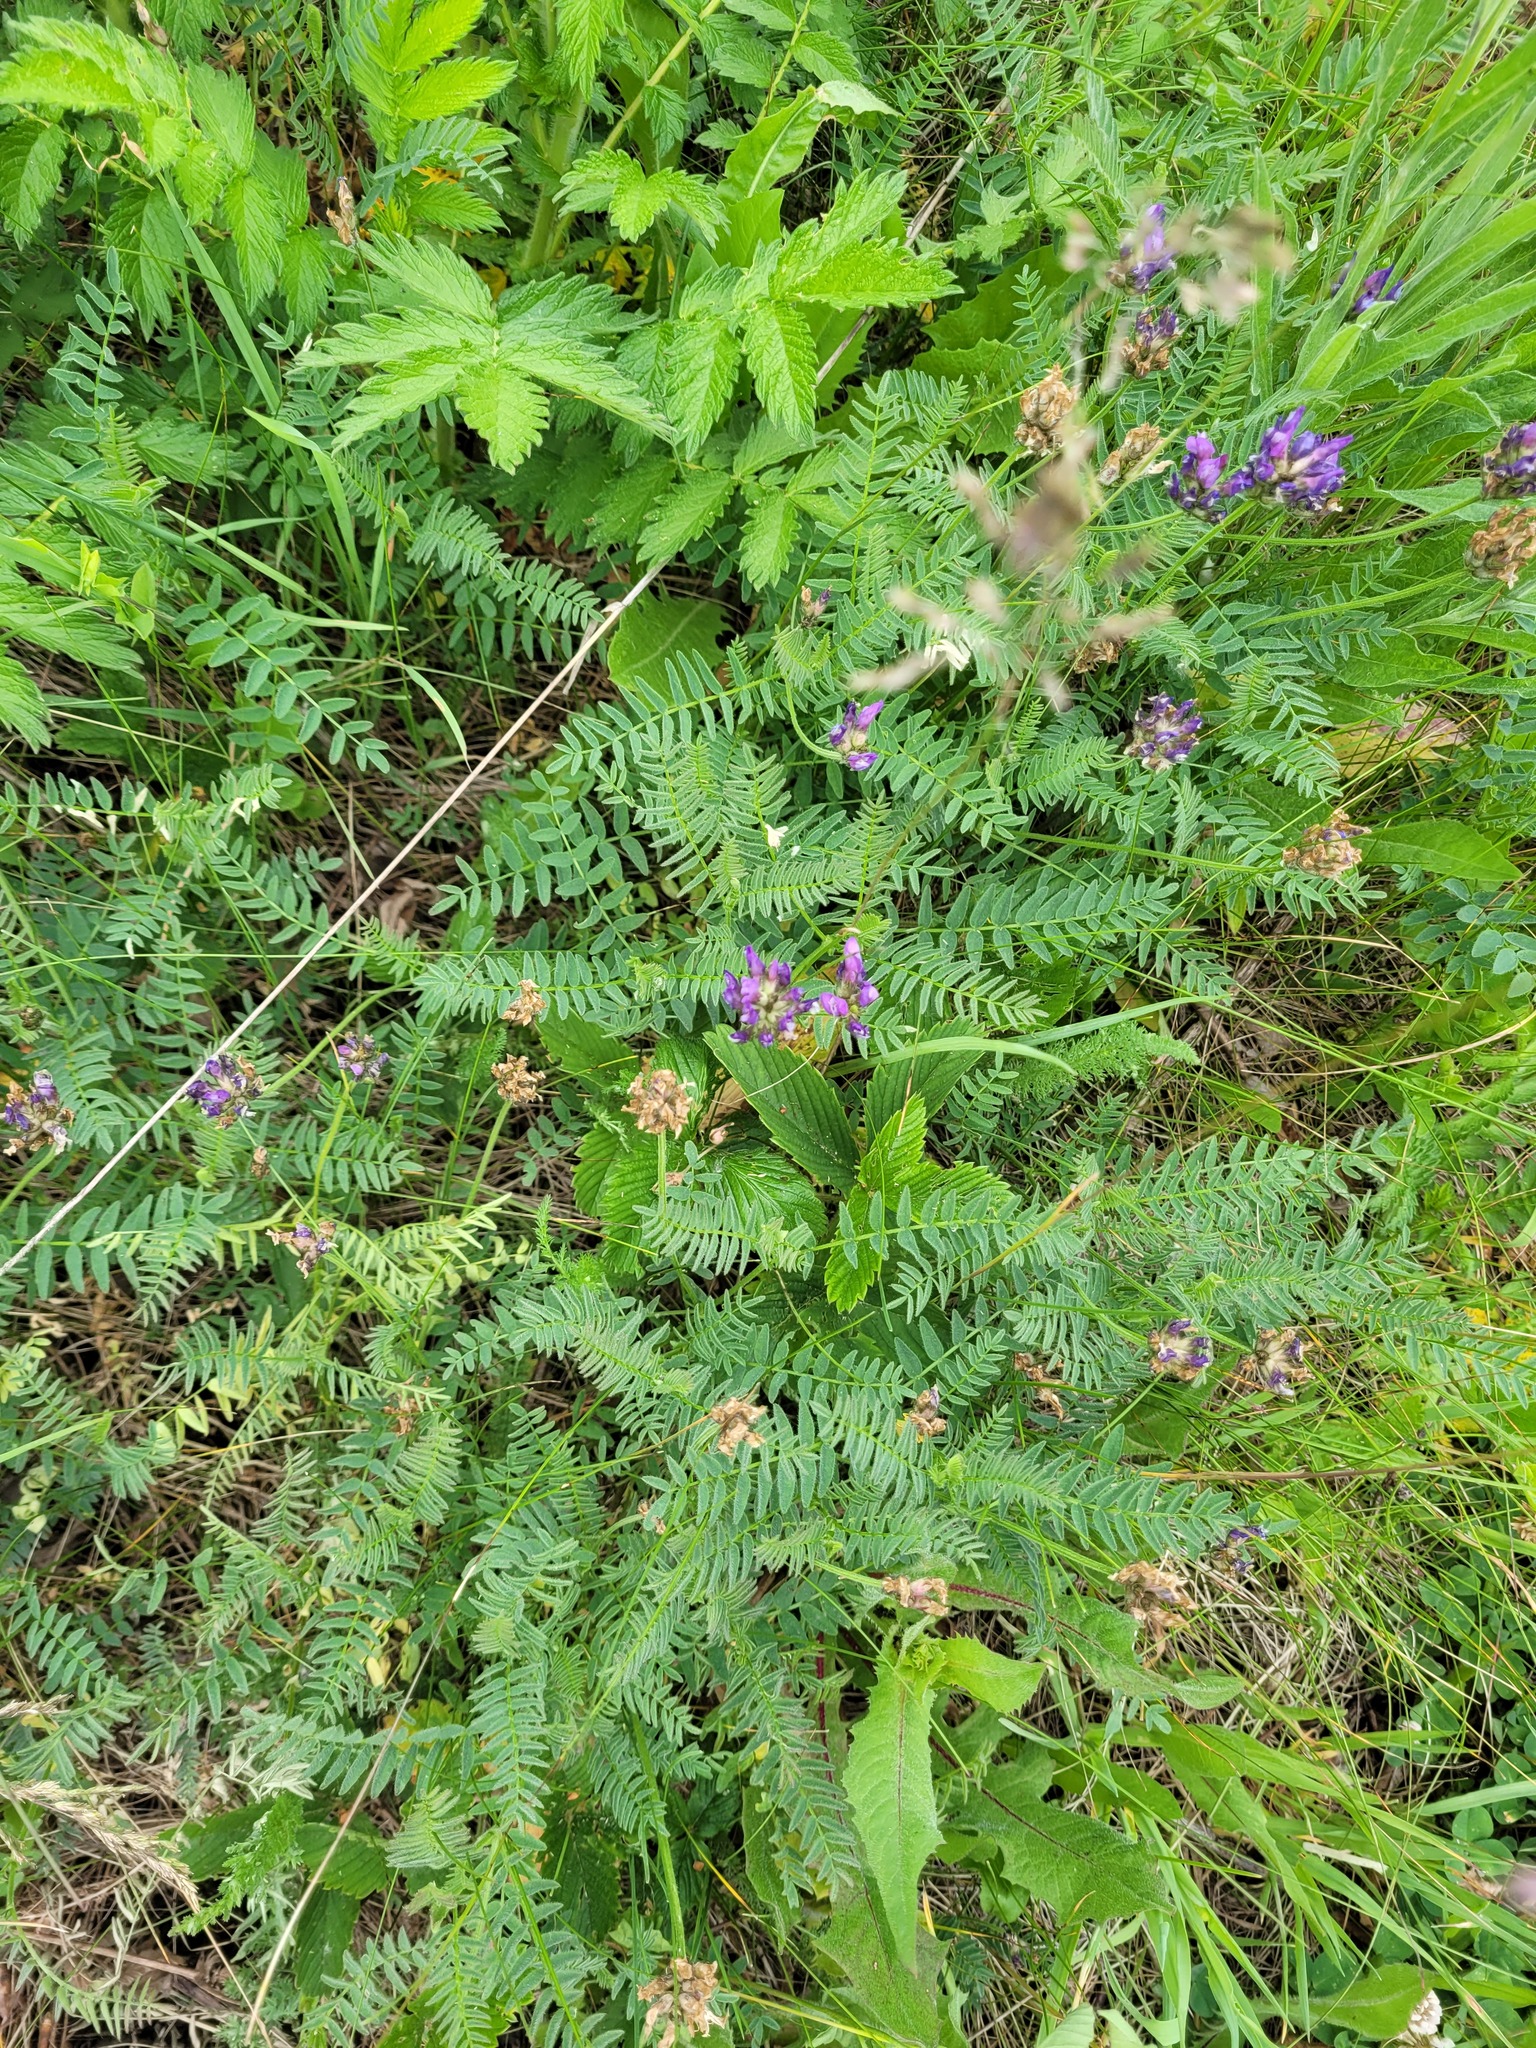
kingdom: Plantae
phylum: Tracheophyta
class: Magnoliopsida
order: Fabales
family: Fabaceae
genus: Astragalus
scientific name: Astragalus danicus
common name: Purple milk-vetch
